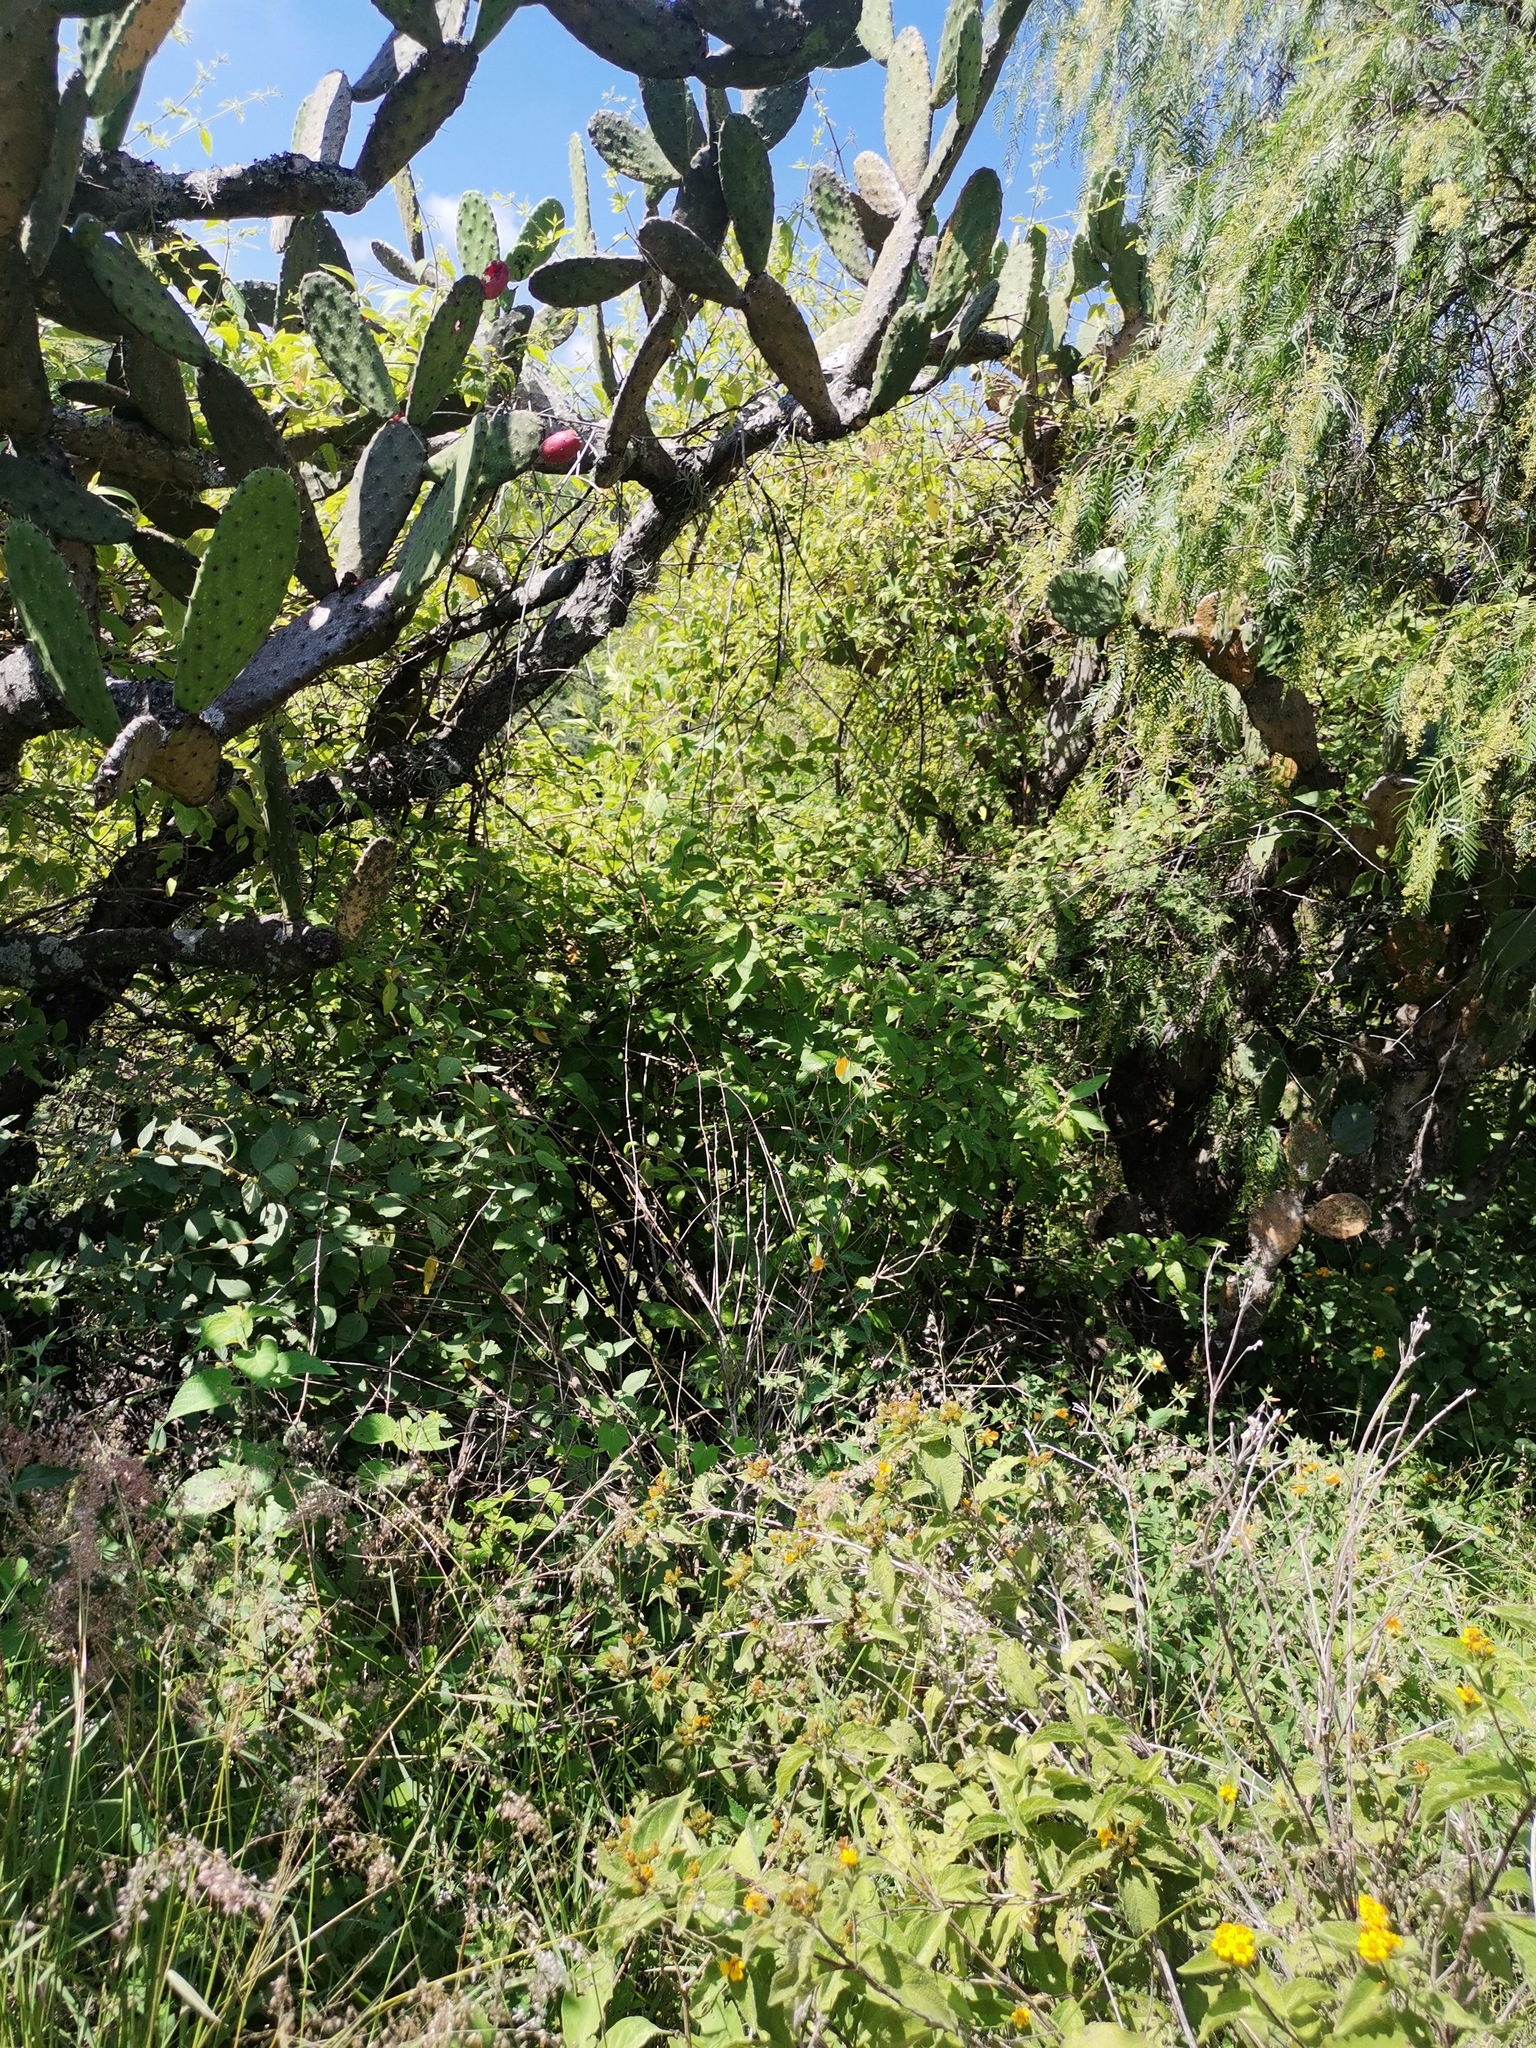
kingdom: Plantae
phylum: Tracheophyta
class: Magnoliopsida
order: Caryophyllales
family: Cactaceae
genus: Opuntia
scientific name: Opuntia tomentosa
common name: Woollyjoint pricklypear
